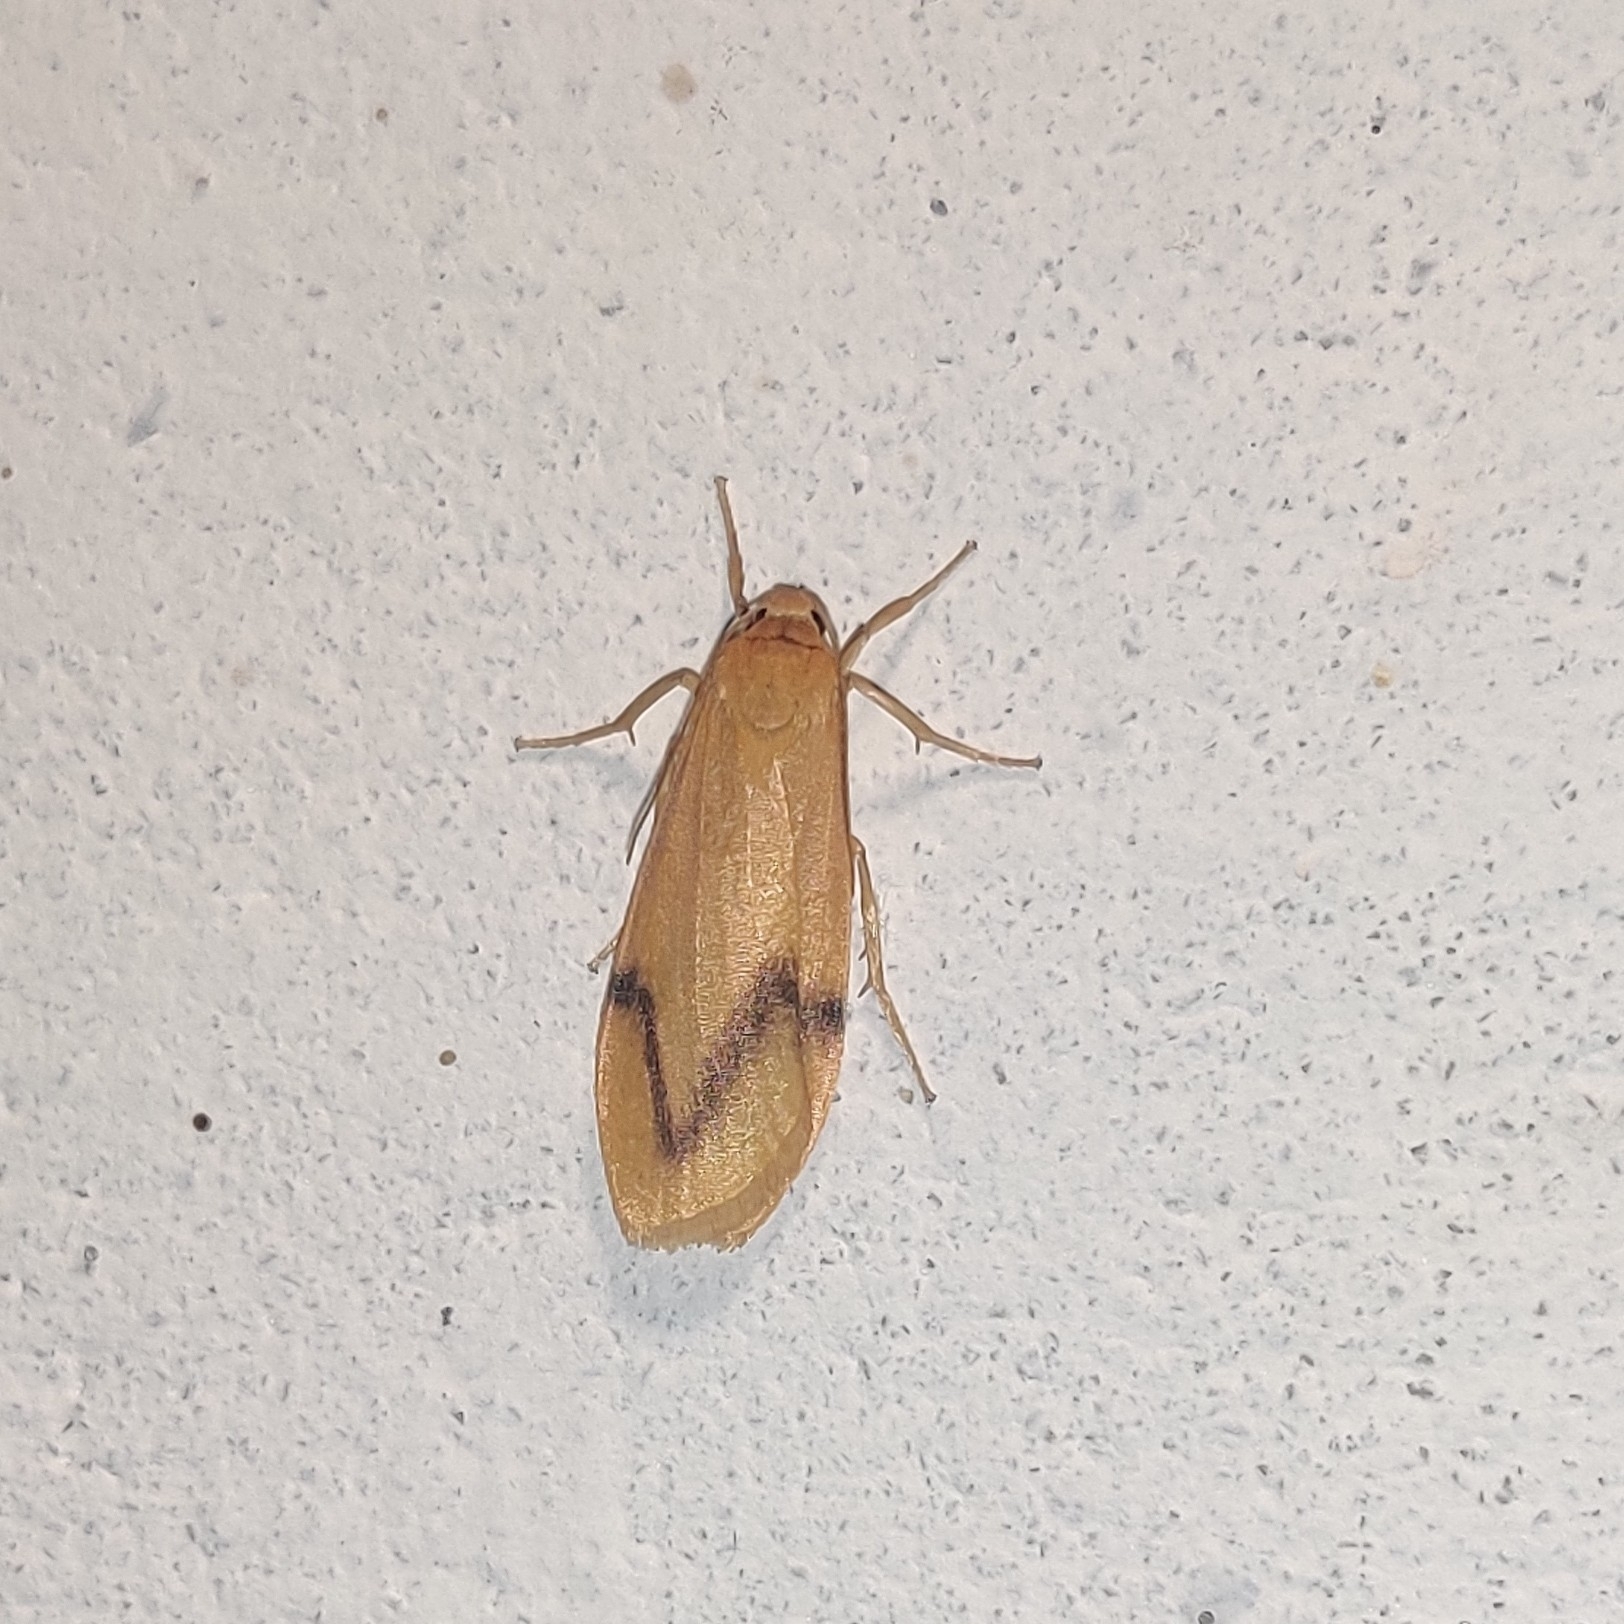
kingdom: Animalia
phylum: Arthropoda
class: Insecta
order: Lepidoptera
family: Erebidae
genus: Dolgoma
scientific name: Dolgoma angulifera
